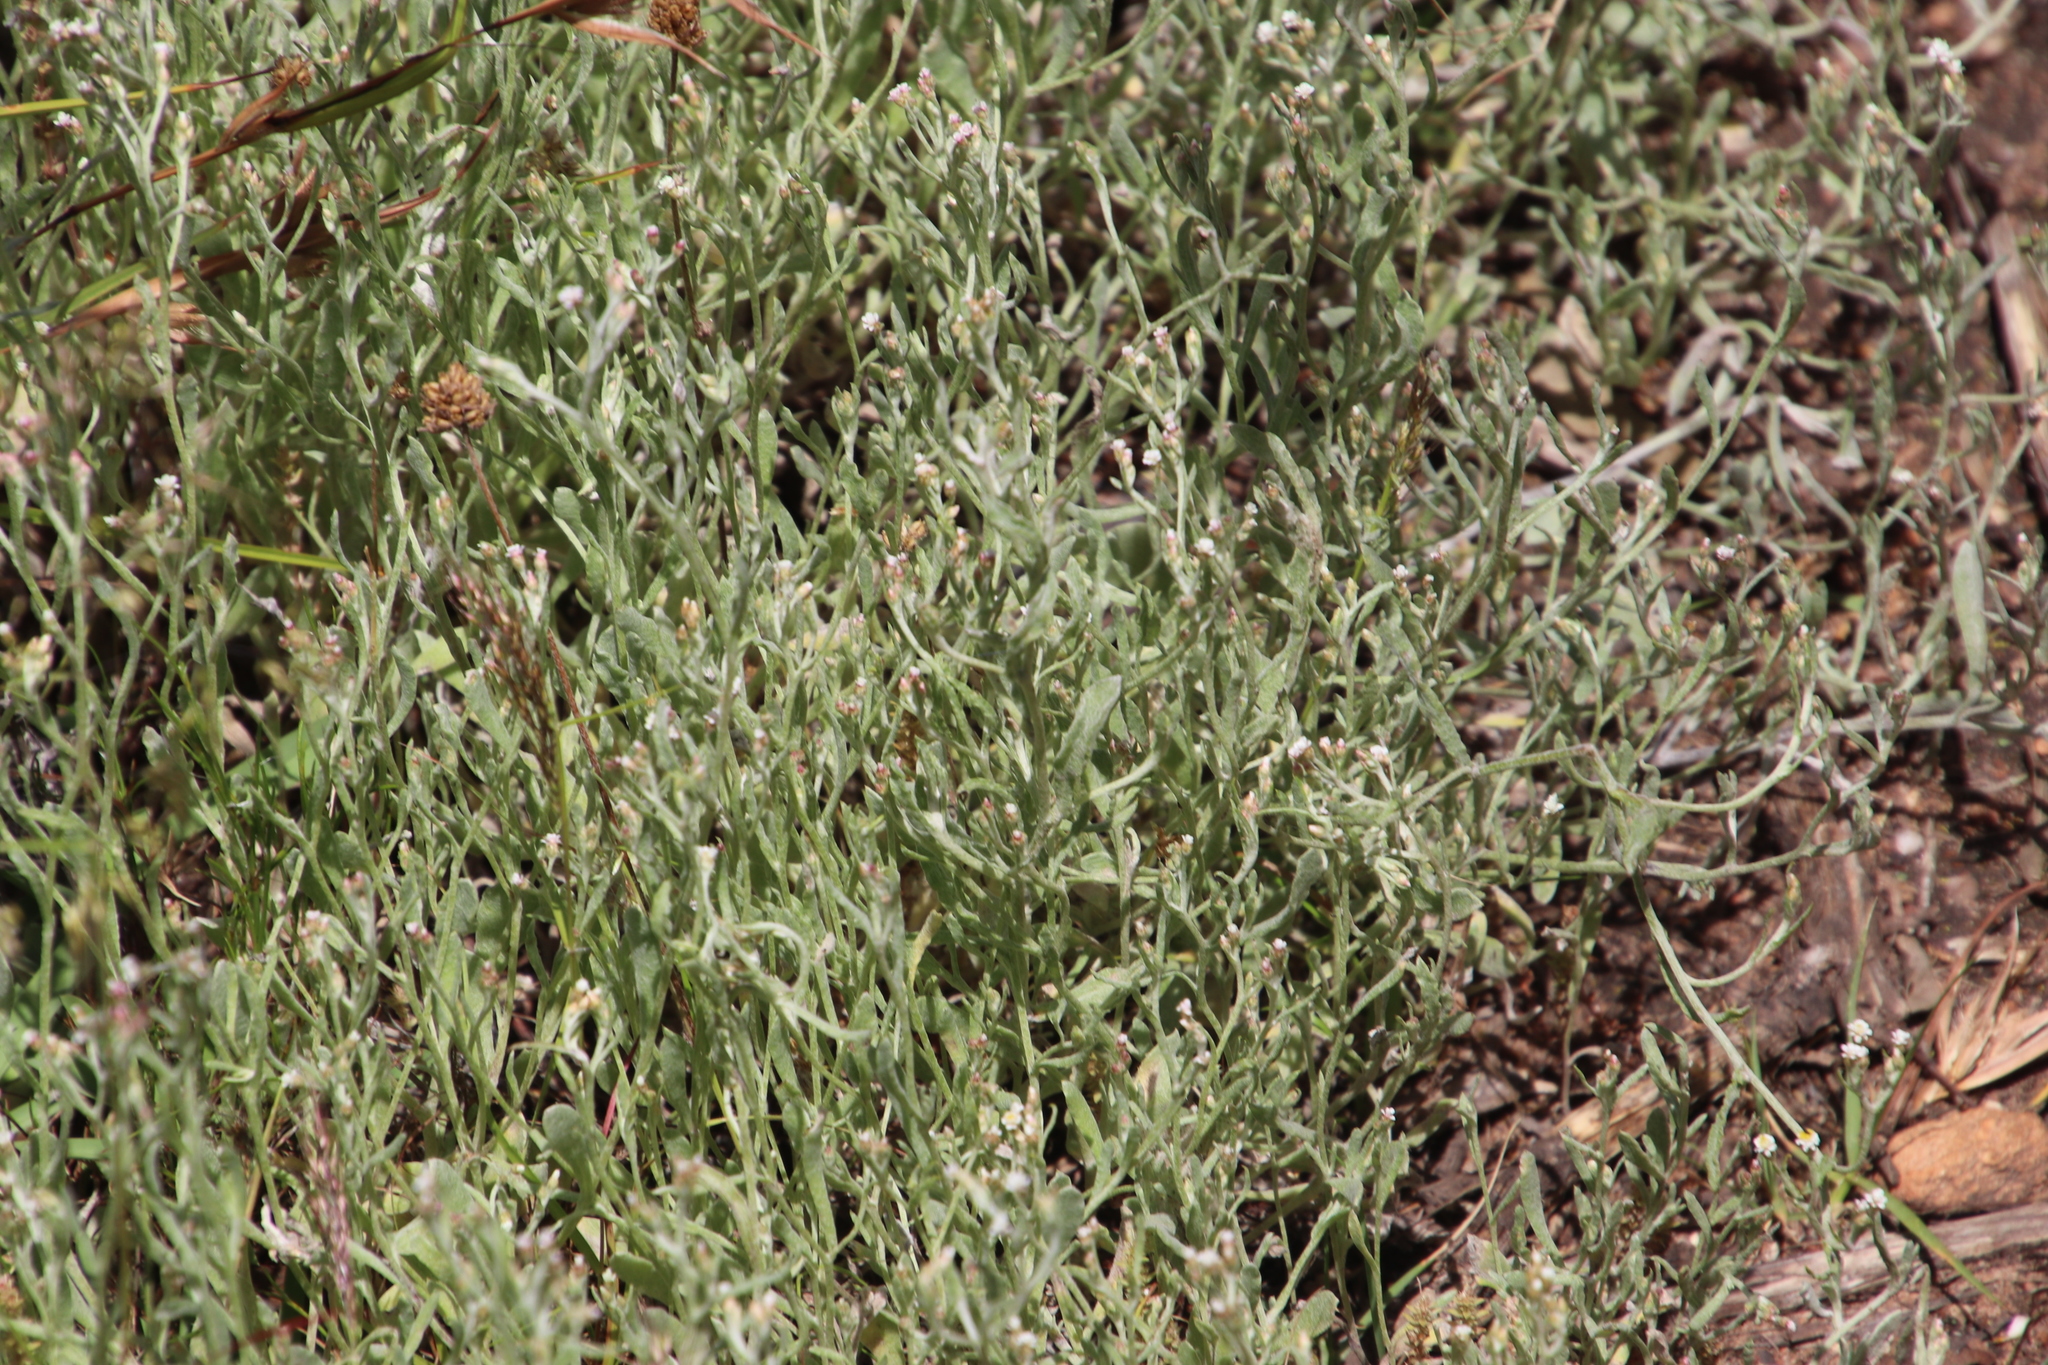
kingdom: Plantae
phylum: Tracheophyta
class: Magnoliopsida
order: Asterales
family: Asteraceae
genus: Helichrysum
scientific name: Helichrysum indicum
